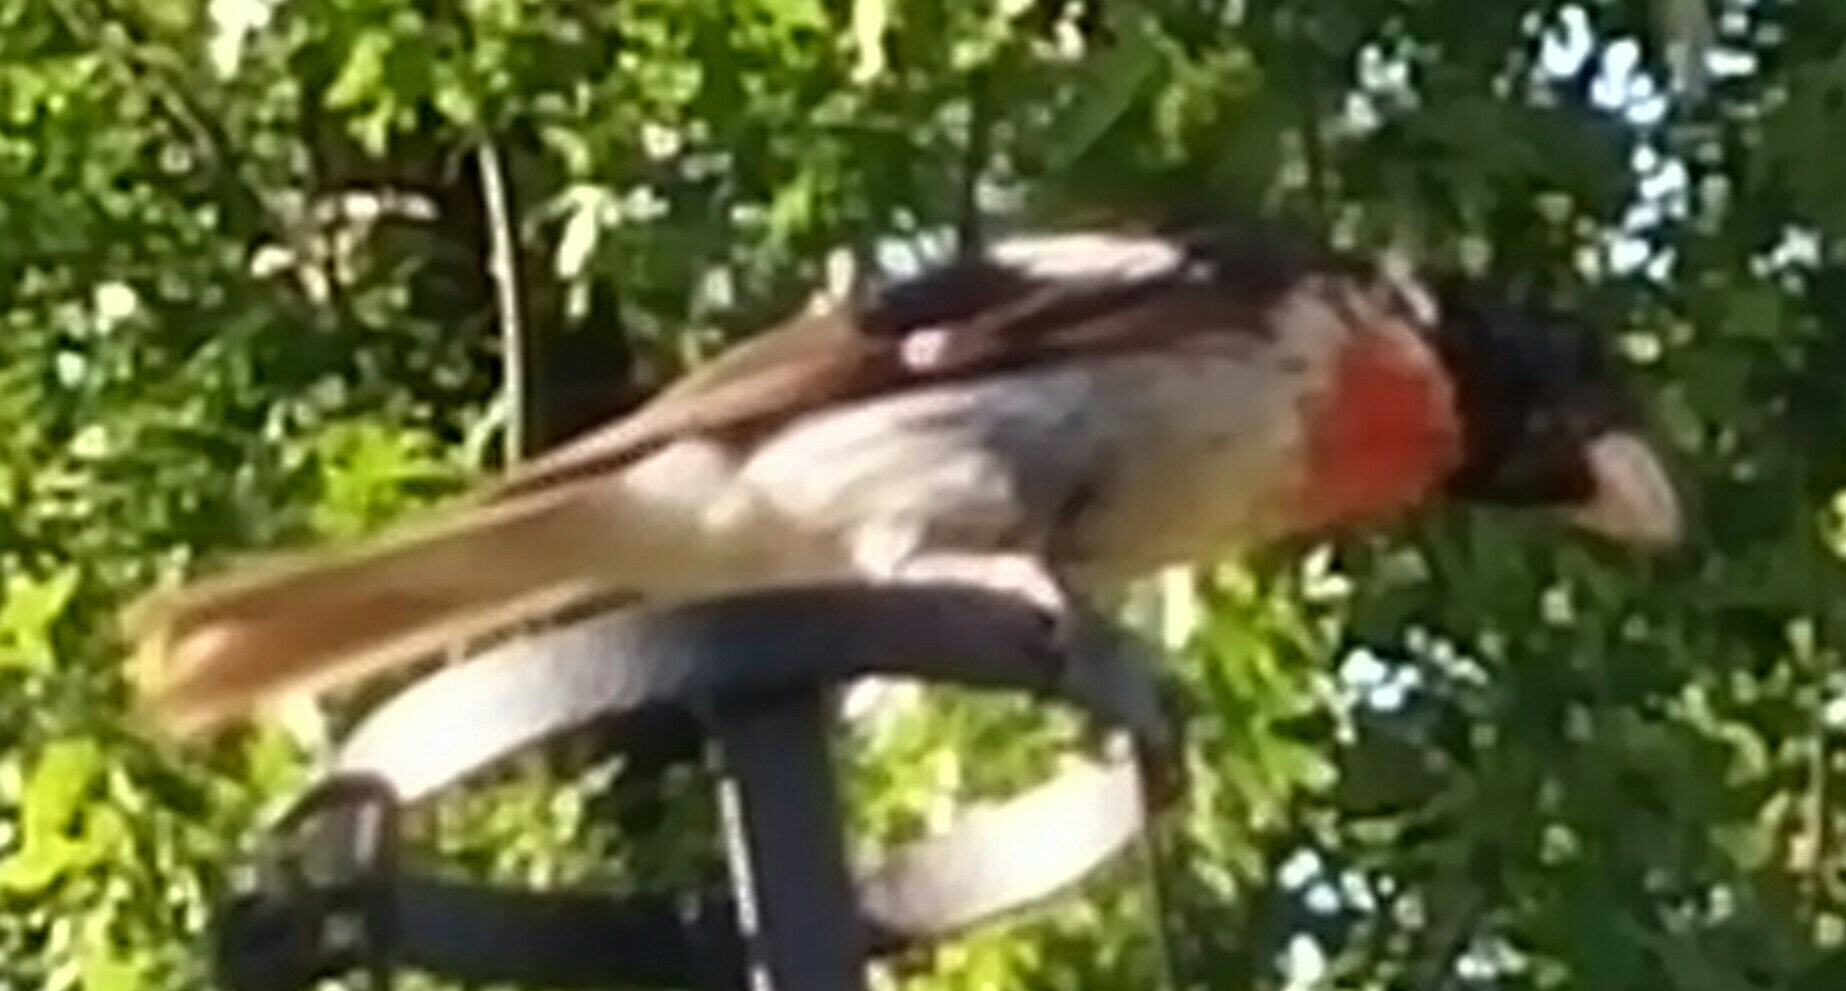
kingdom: Animalia
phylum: Chordata
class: Aves
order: Passeriformes
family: Cardinalidae
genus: Pheucticus
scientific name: Pheucticus ludovicianus
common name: Rose-breasted grosbeak
